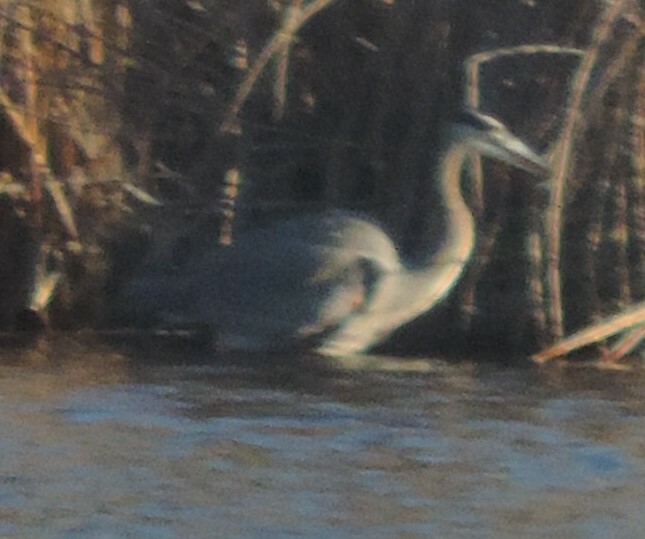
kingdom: Animalia
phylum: Chordata
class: Aves
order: Pelecaniformes
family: Ardeidae
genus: Ardea
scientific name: Ardea herodias
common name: Great blue heron
